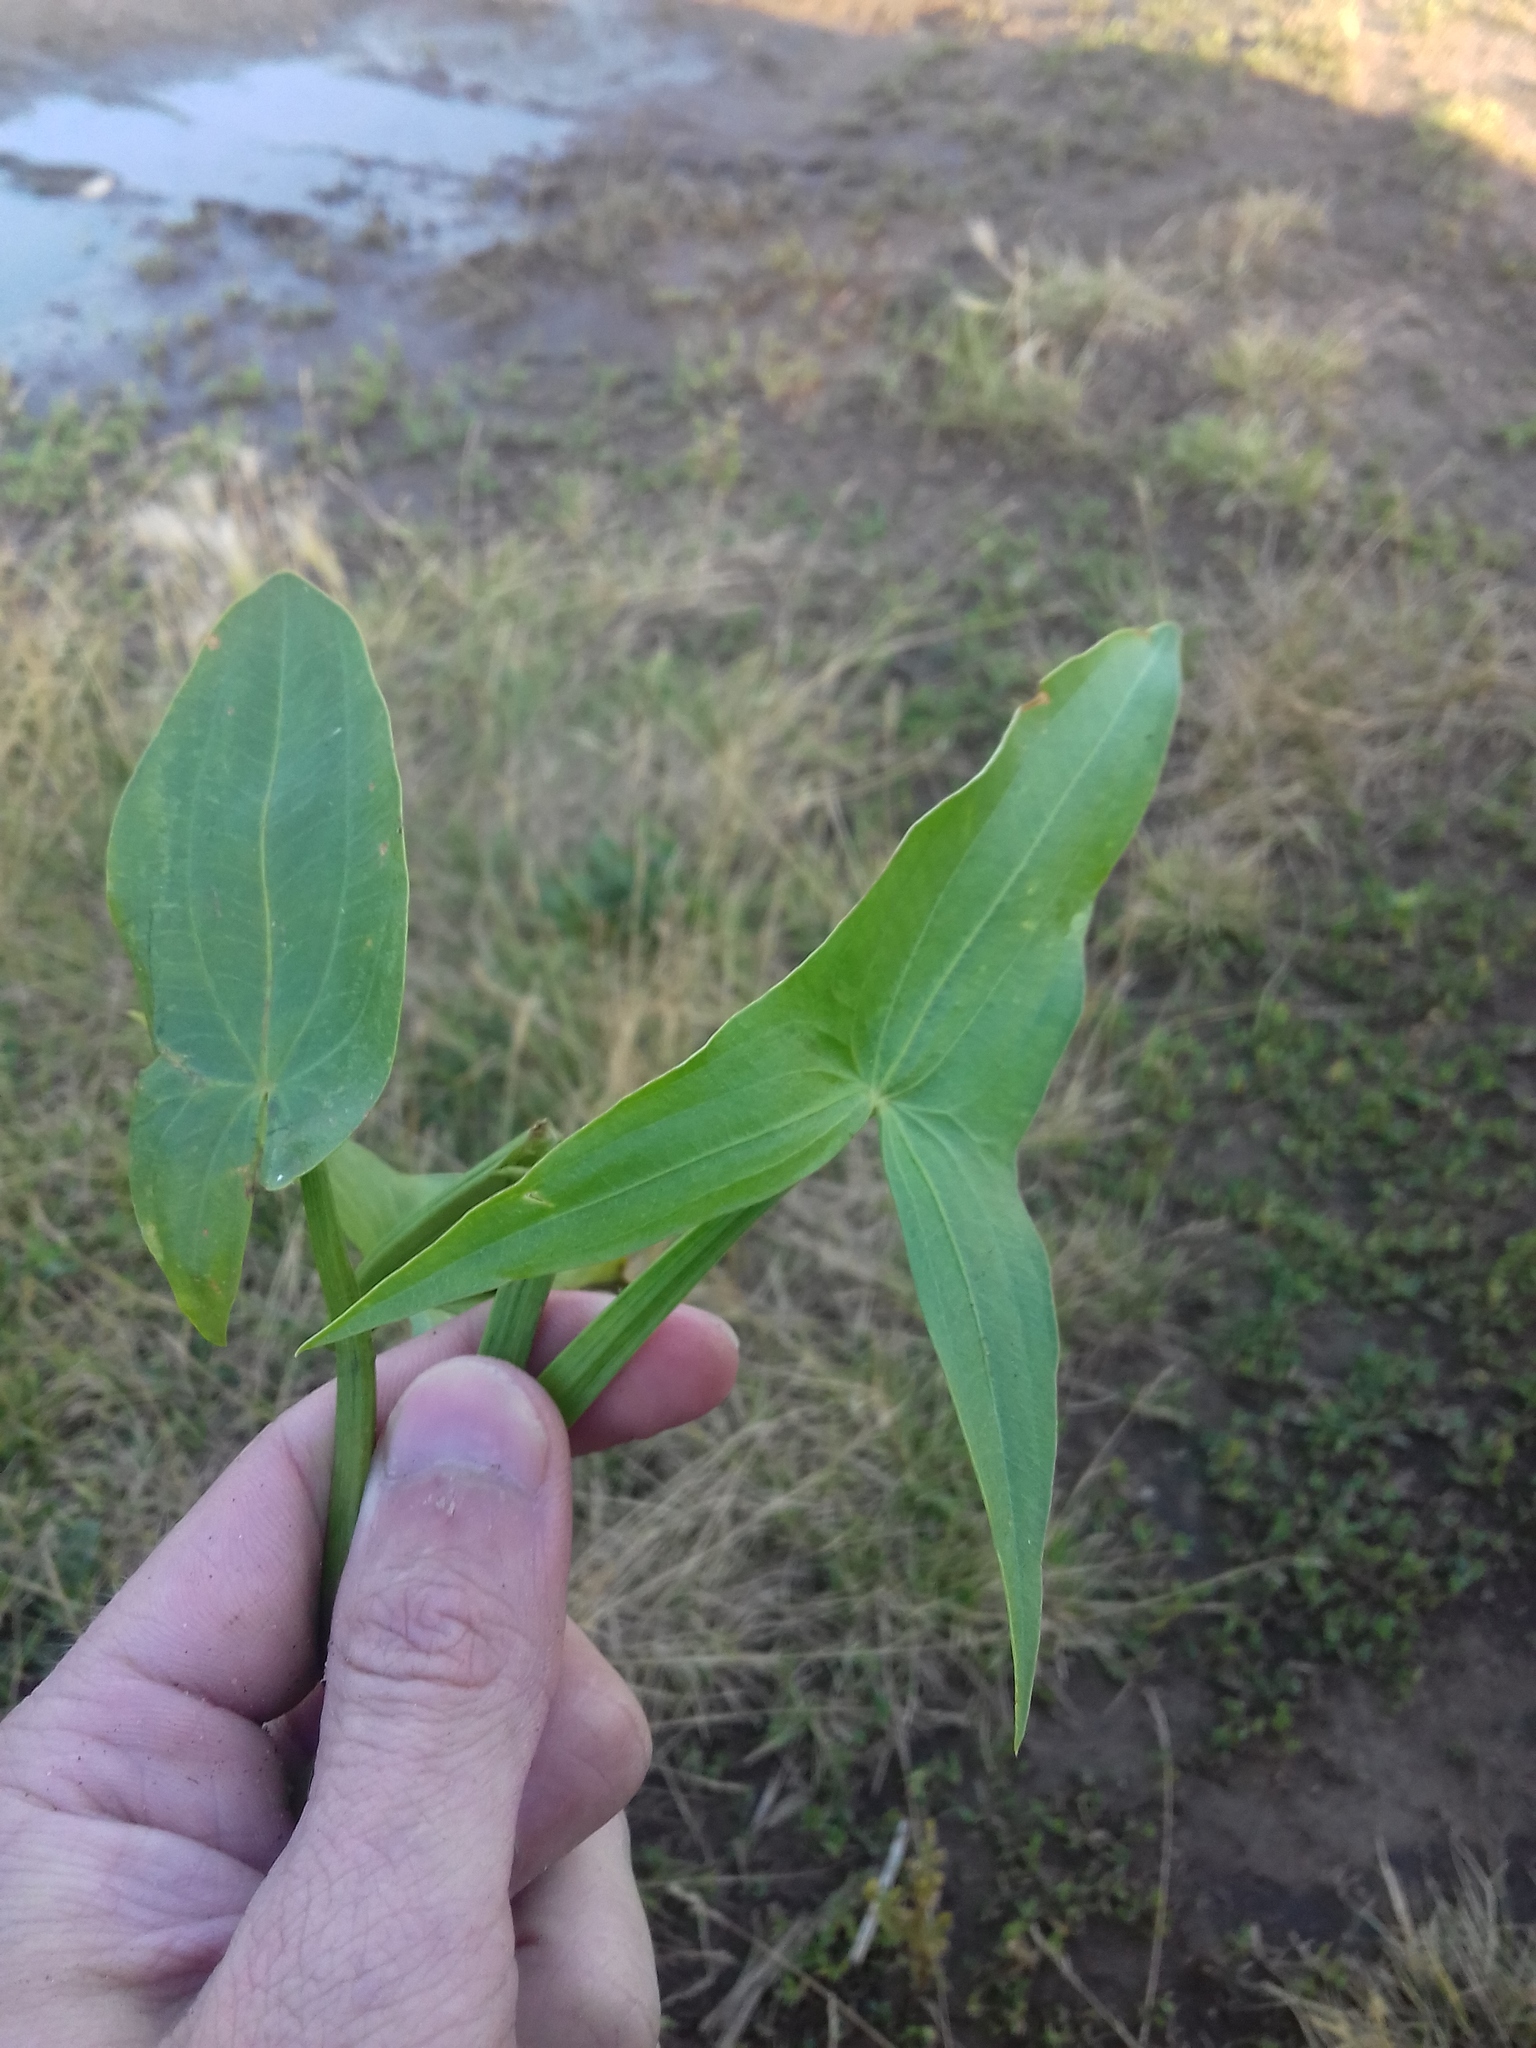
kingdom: Plantae
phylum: Tracheophyta
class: Liliopsida
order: Alismatales
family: Alismataceae
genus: Sagittaria
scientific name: Sagittaria sagittifolia
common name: Arrowhead
